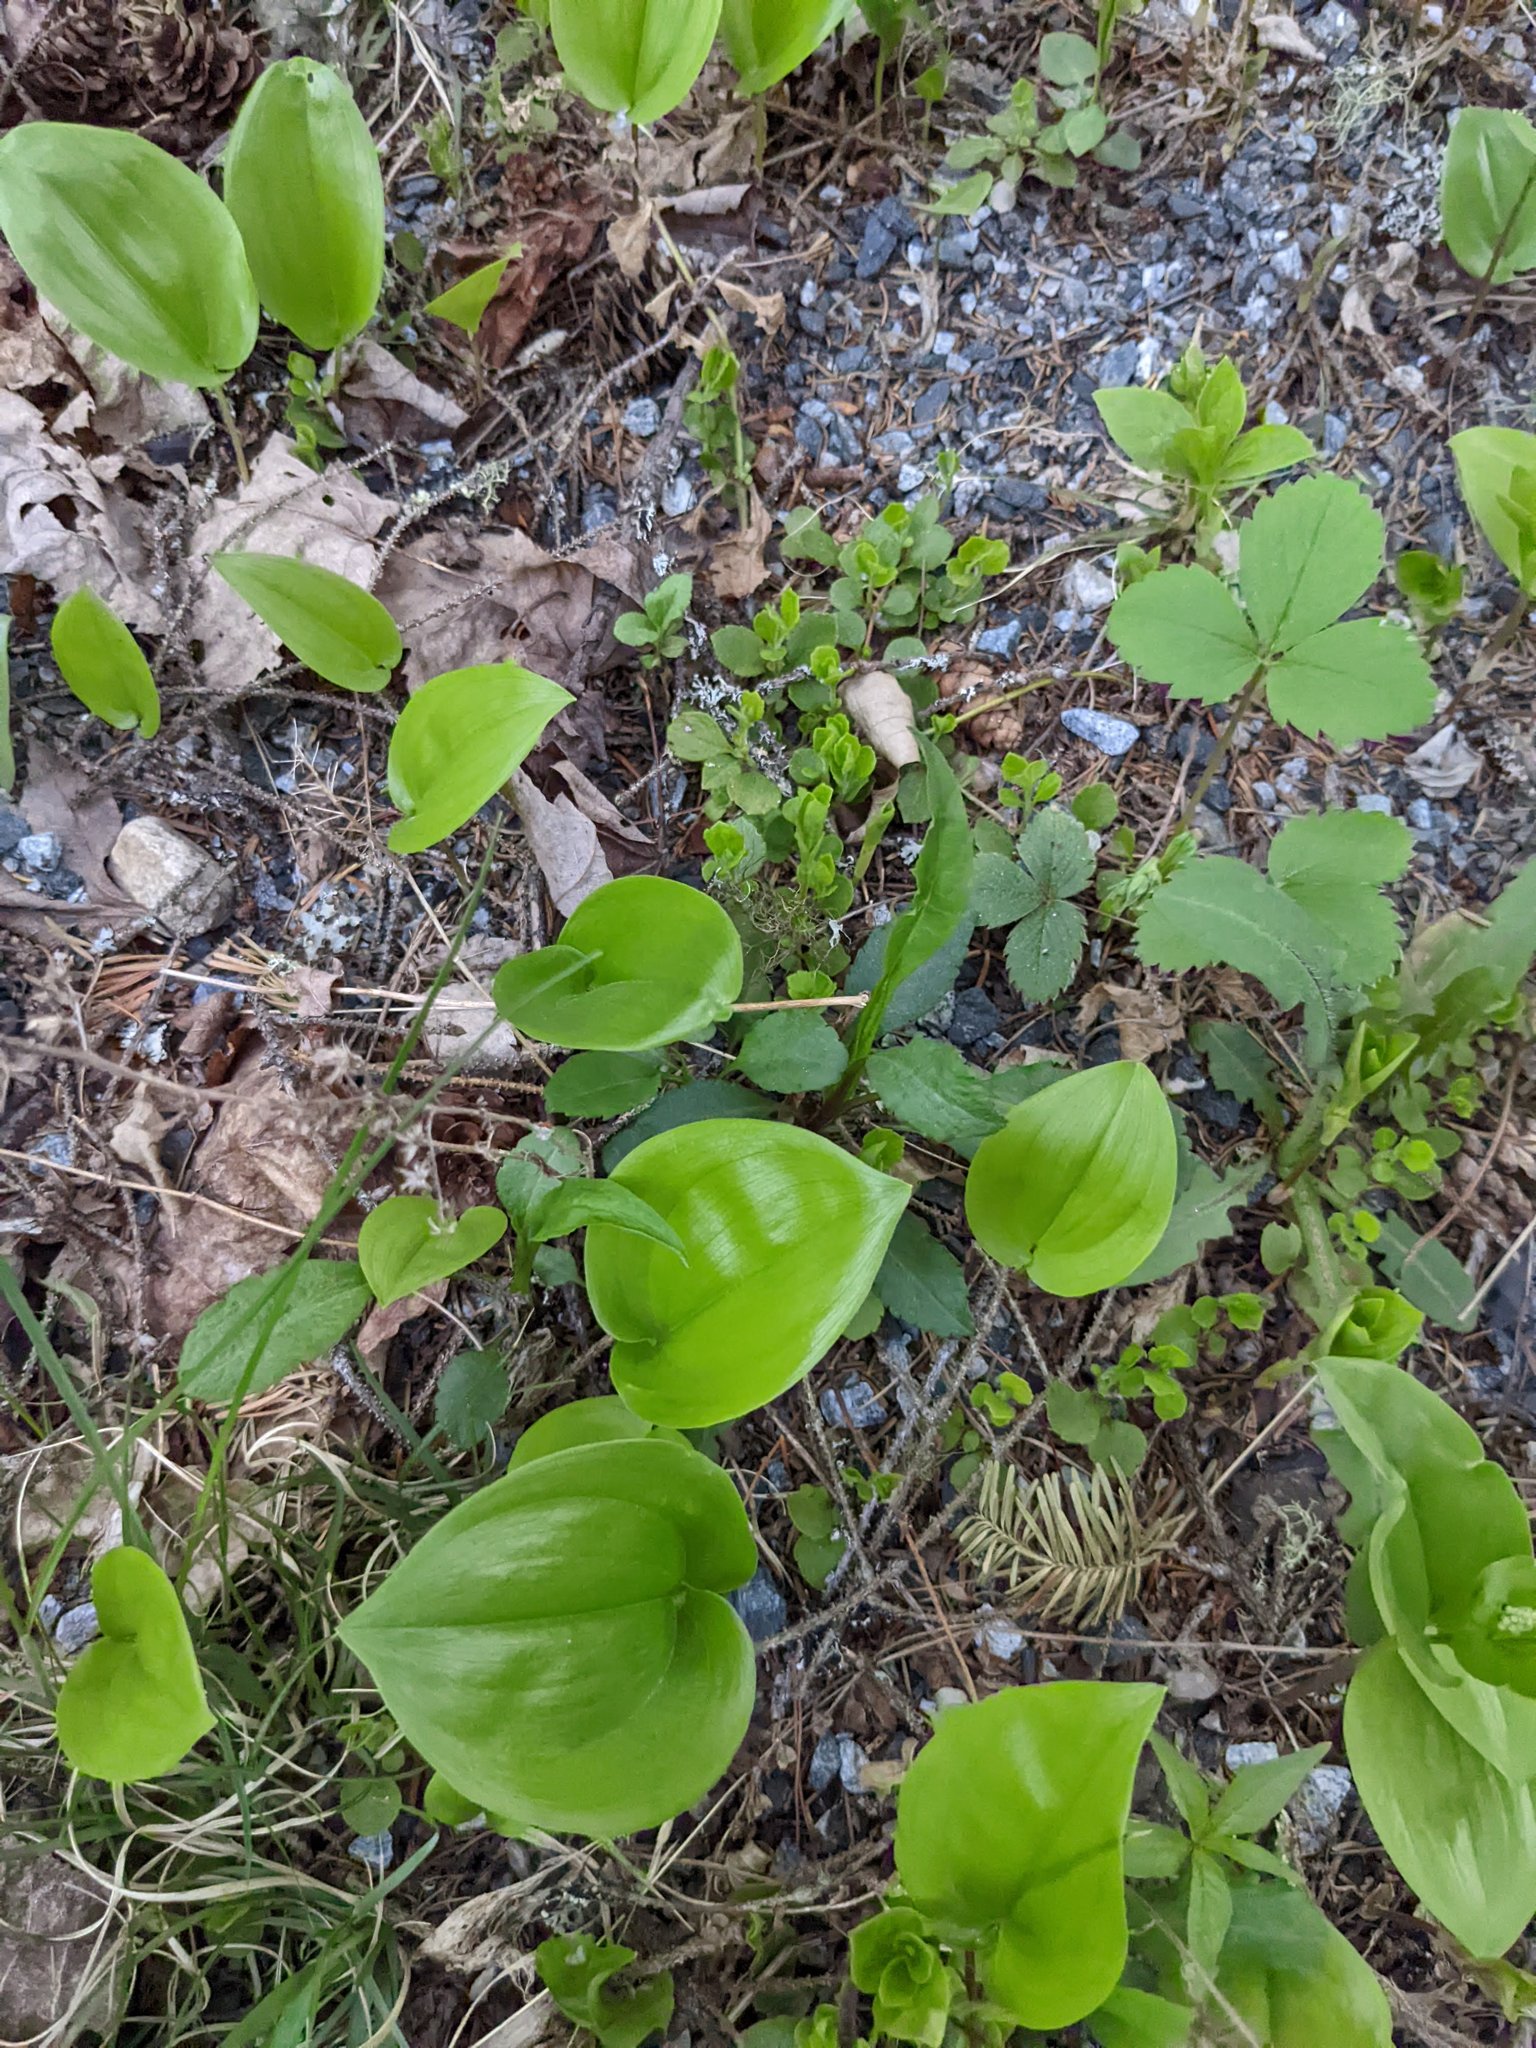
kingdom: Plantae
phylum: Tracheophyta
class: Liliopsida
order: Asparagales
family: Asparagaceae
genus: Maianthemum
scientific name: Maianthemum canadense
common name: False lily-of-the-valley
